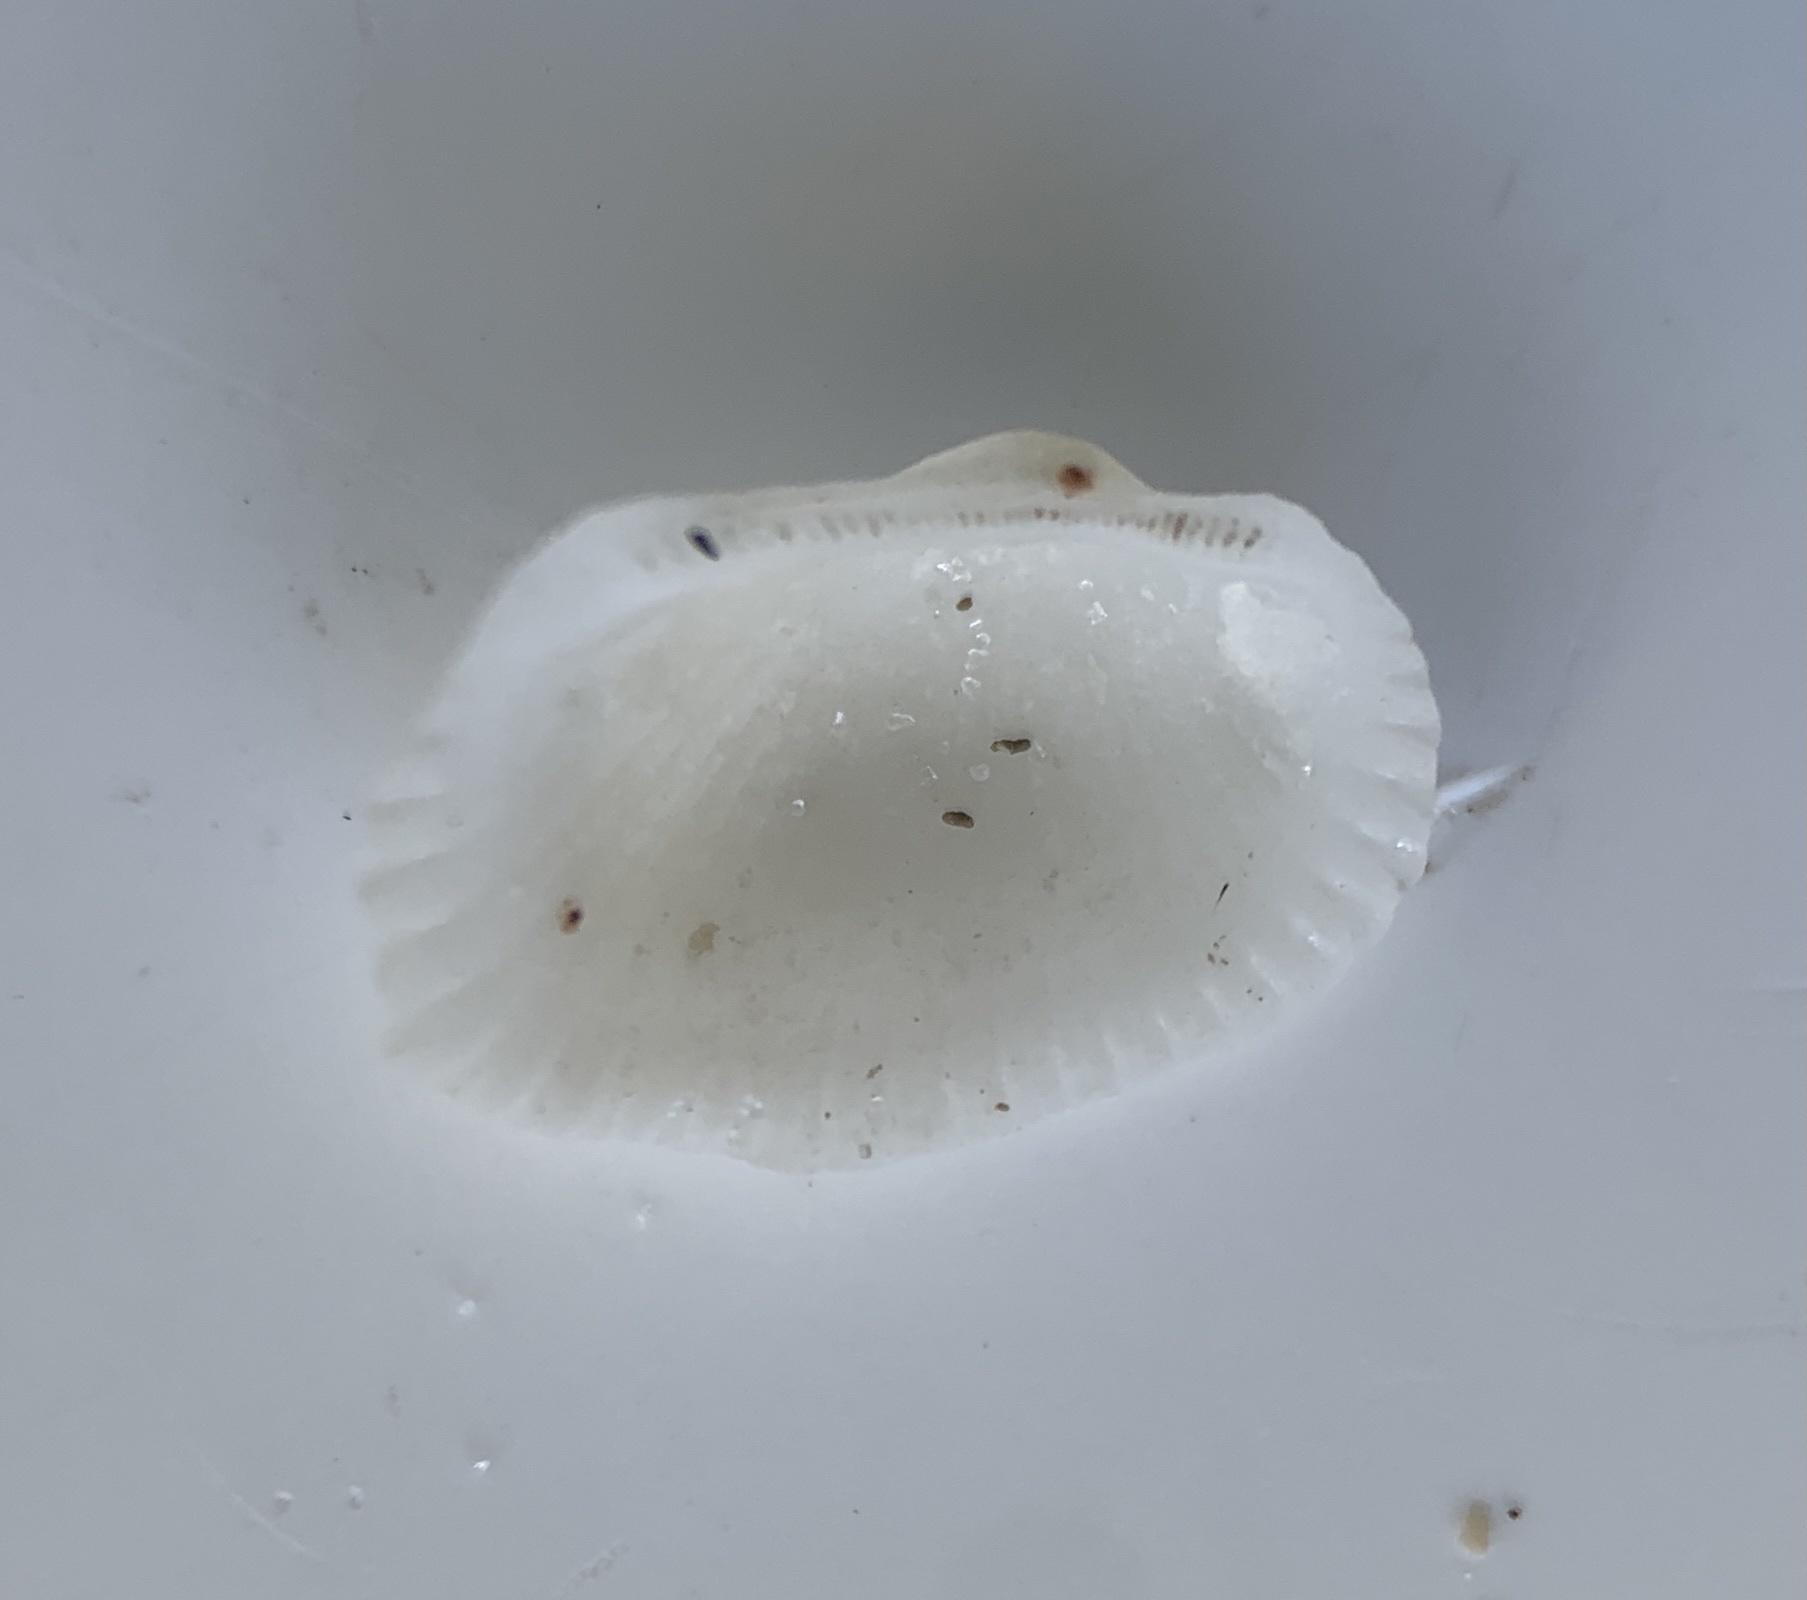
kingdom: Animalia
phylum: Mollusca
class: Bivalvia
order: Arcida
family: Arcidae
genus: Anadara
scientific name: Anadara transversa
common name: Transverse ark
